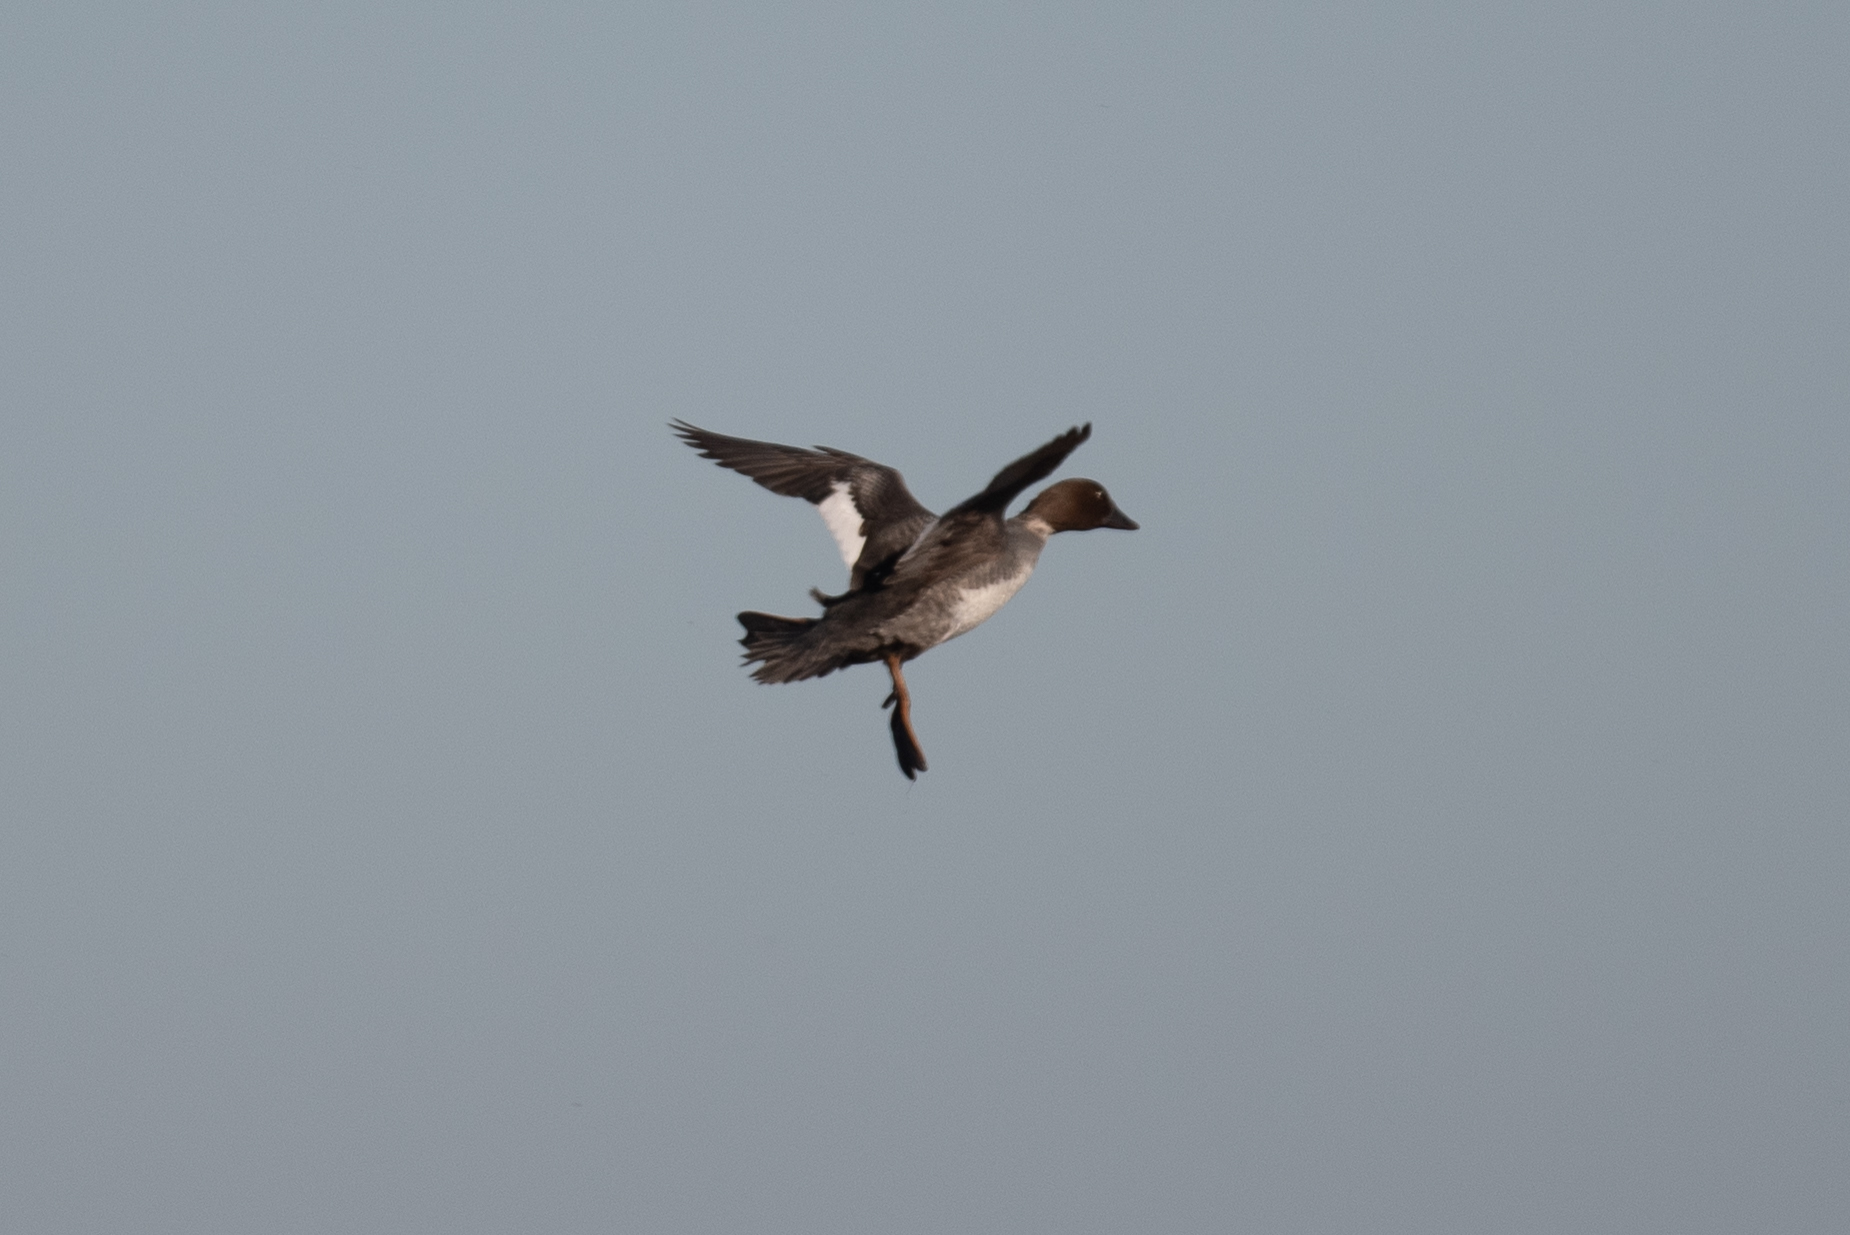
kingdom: Animalia
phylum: Chordata
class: Aves
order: Anseriformes
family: Anatidae
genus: Bucephala
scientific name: Bucephala clangula
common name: Common goldeneye
